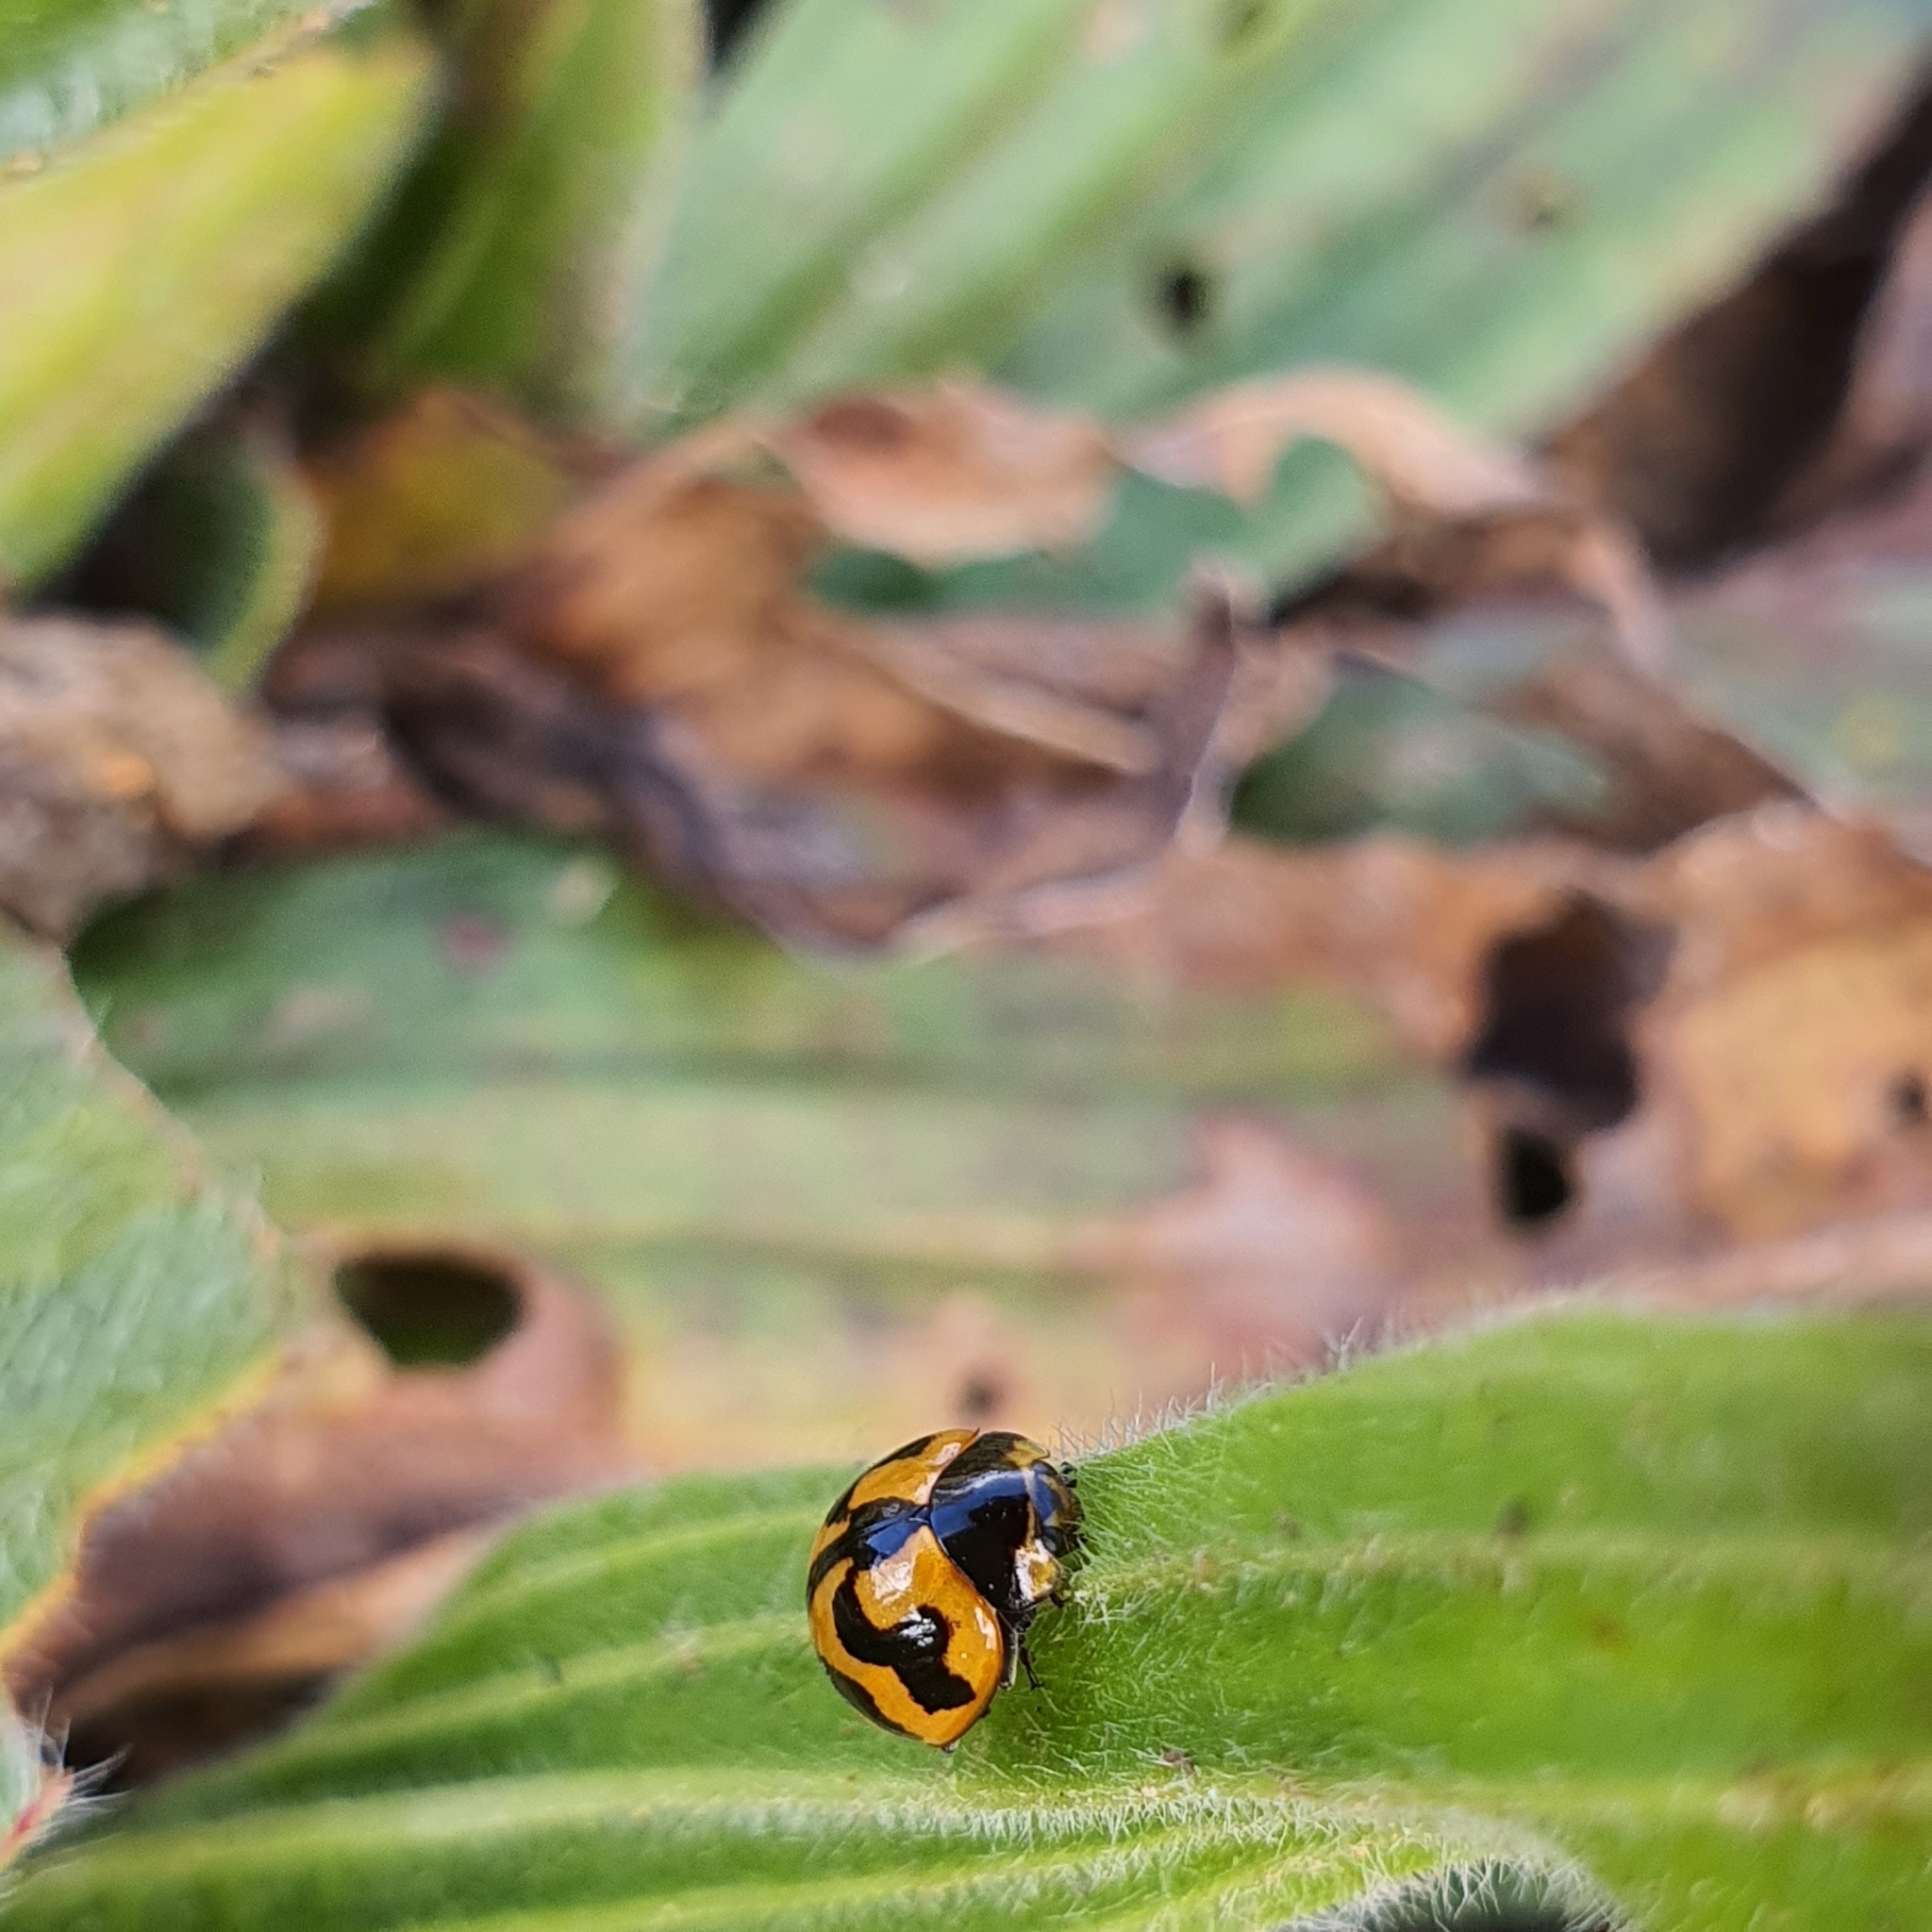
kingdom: Animalia
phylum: Arthropoda
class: Insecta
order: Coleoptera
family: Coccinellidae
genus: Coccinella
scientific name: Coccinella transversalis
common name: Transverse lady beetle
